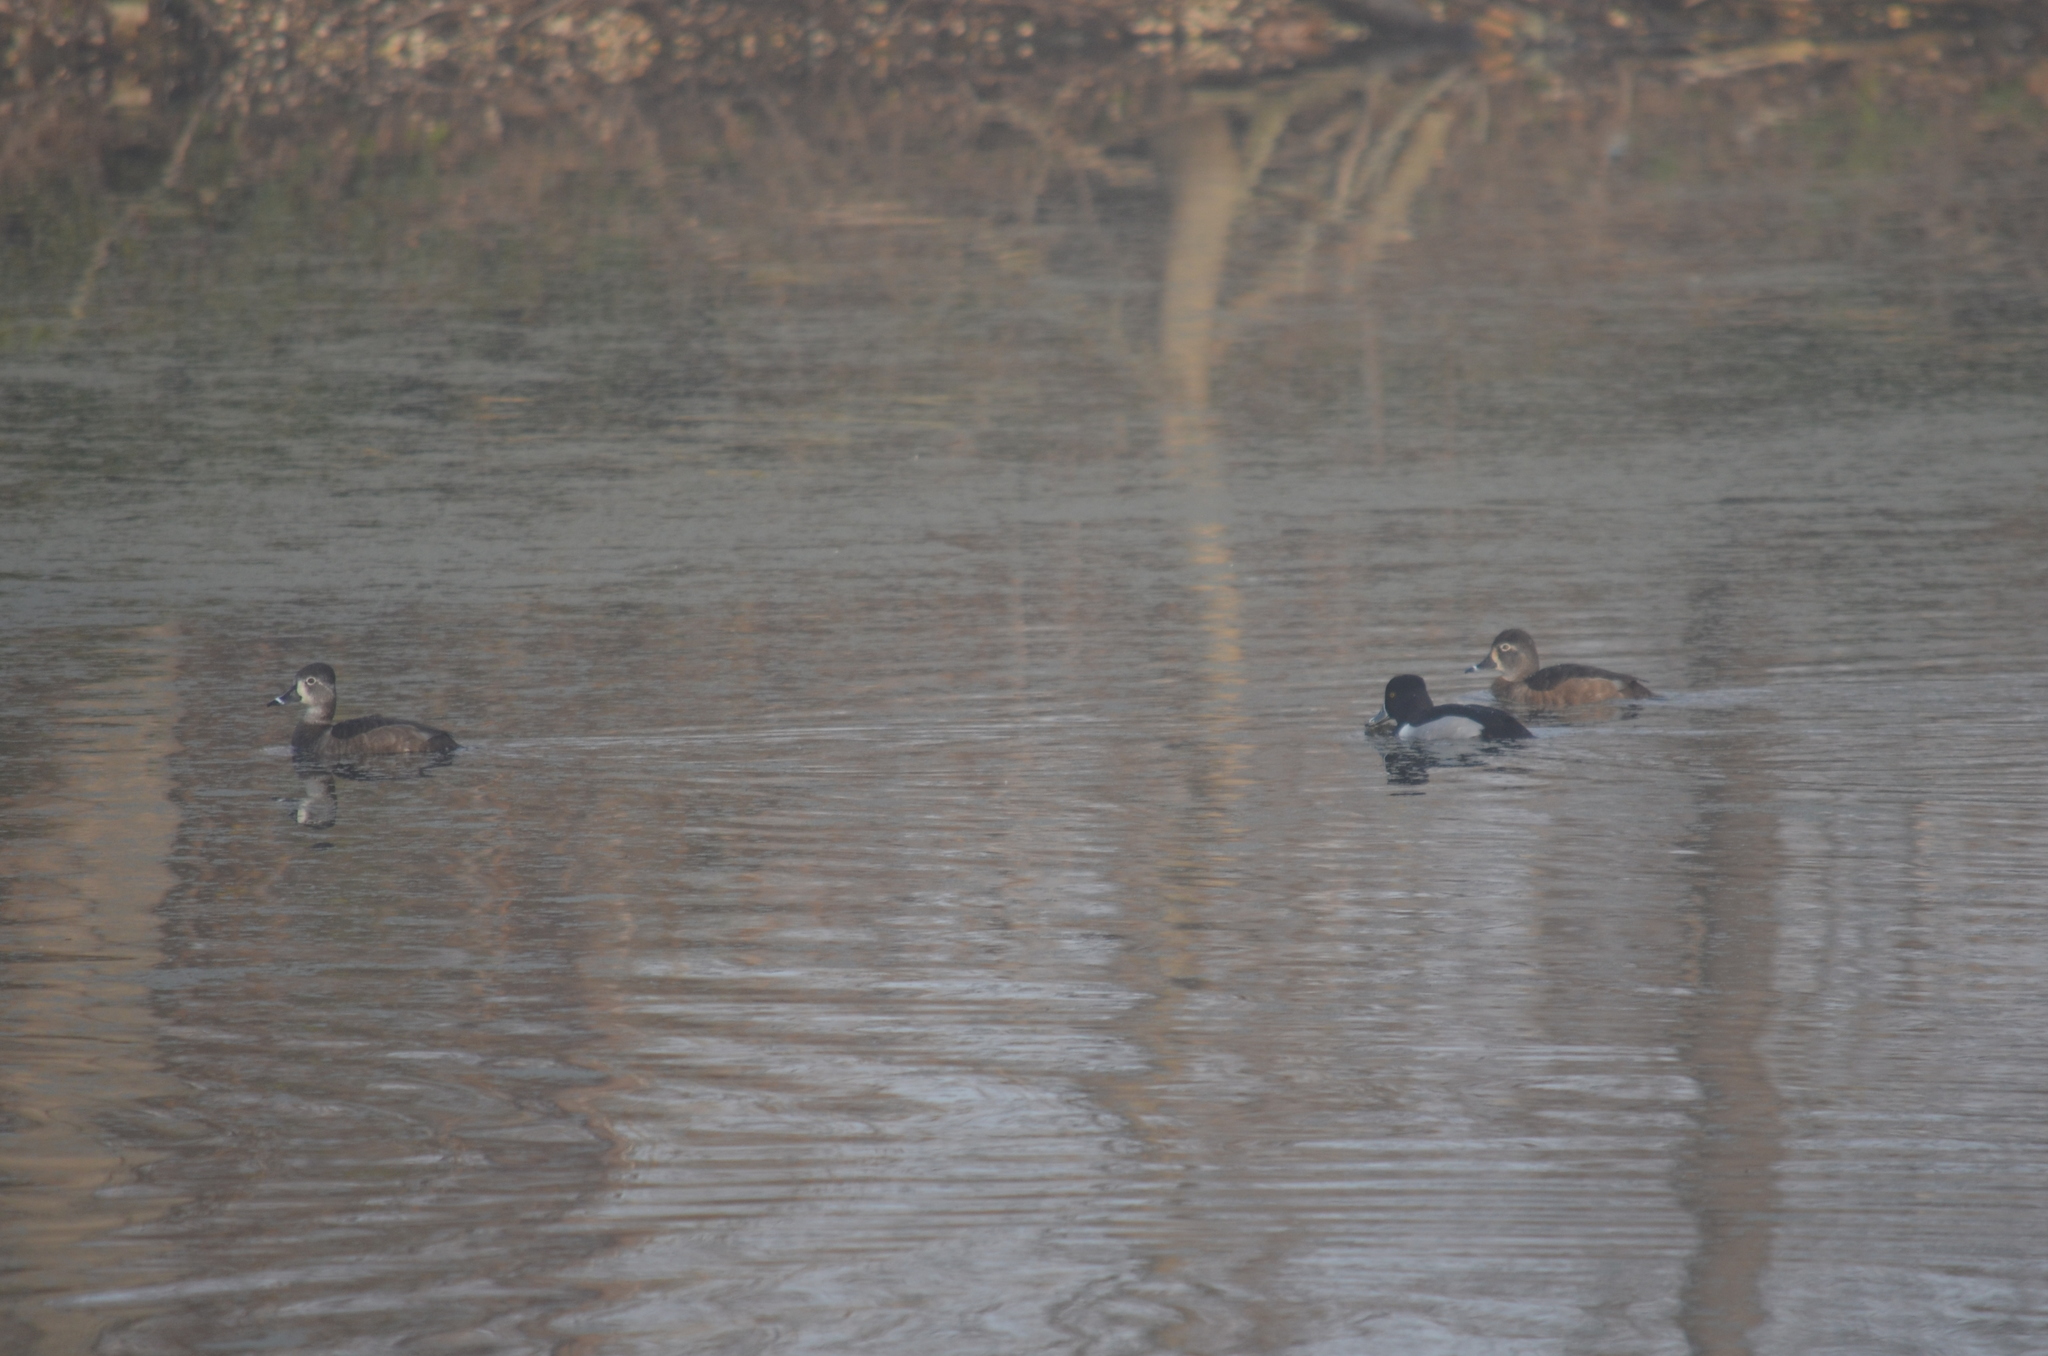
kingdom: Animalia
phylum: Chordata
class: Aves
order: Anseriformes
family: Anatidae
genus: Aythya
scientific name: Aythya collaris
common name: Ring-necked duck
